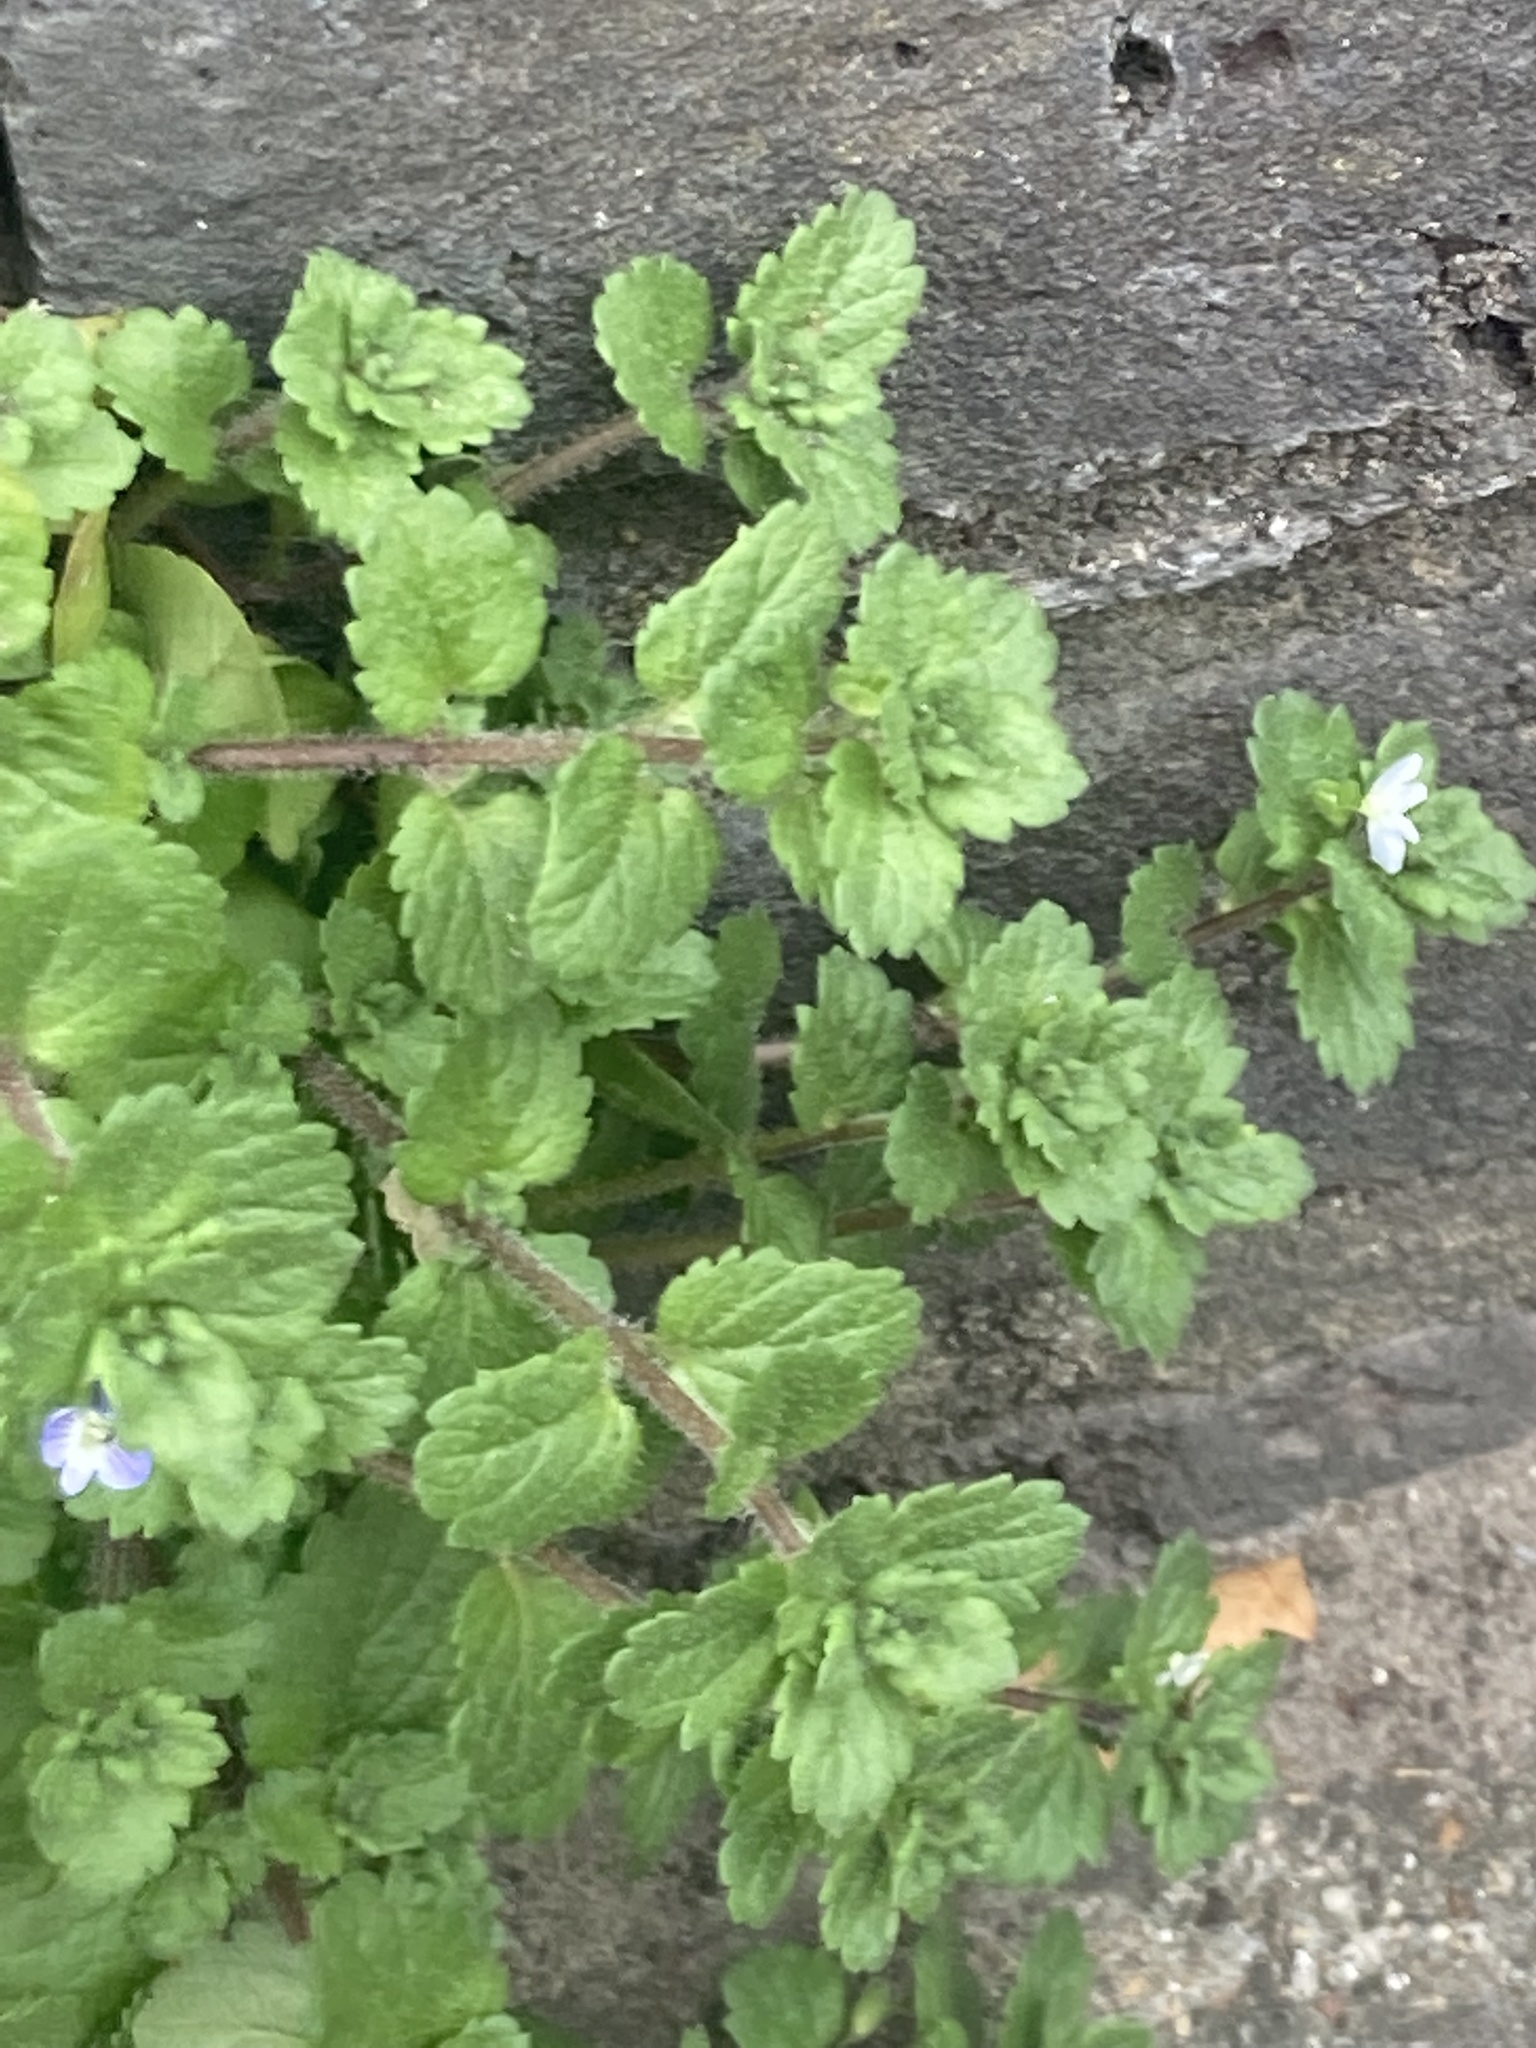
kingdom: Plantae
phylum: Tracheophyta
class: Magnoliopsida
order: Lamiales
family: Plantaginaceae
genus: Veronica
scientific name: Veronica persica
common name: Common field-speedwell
